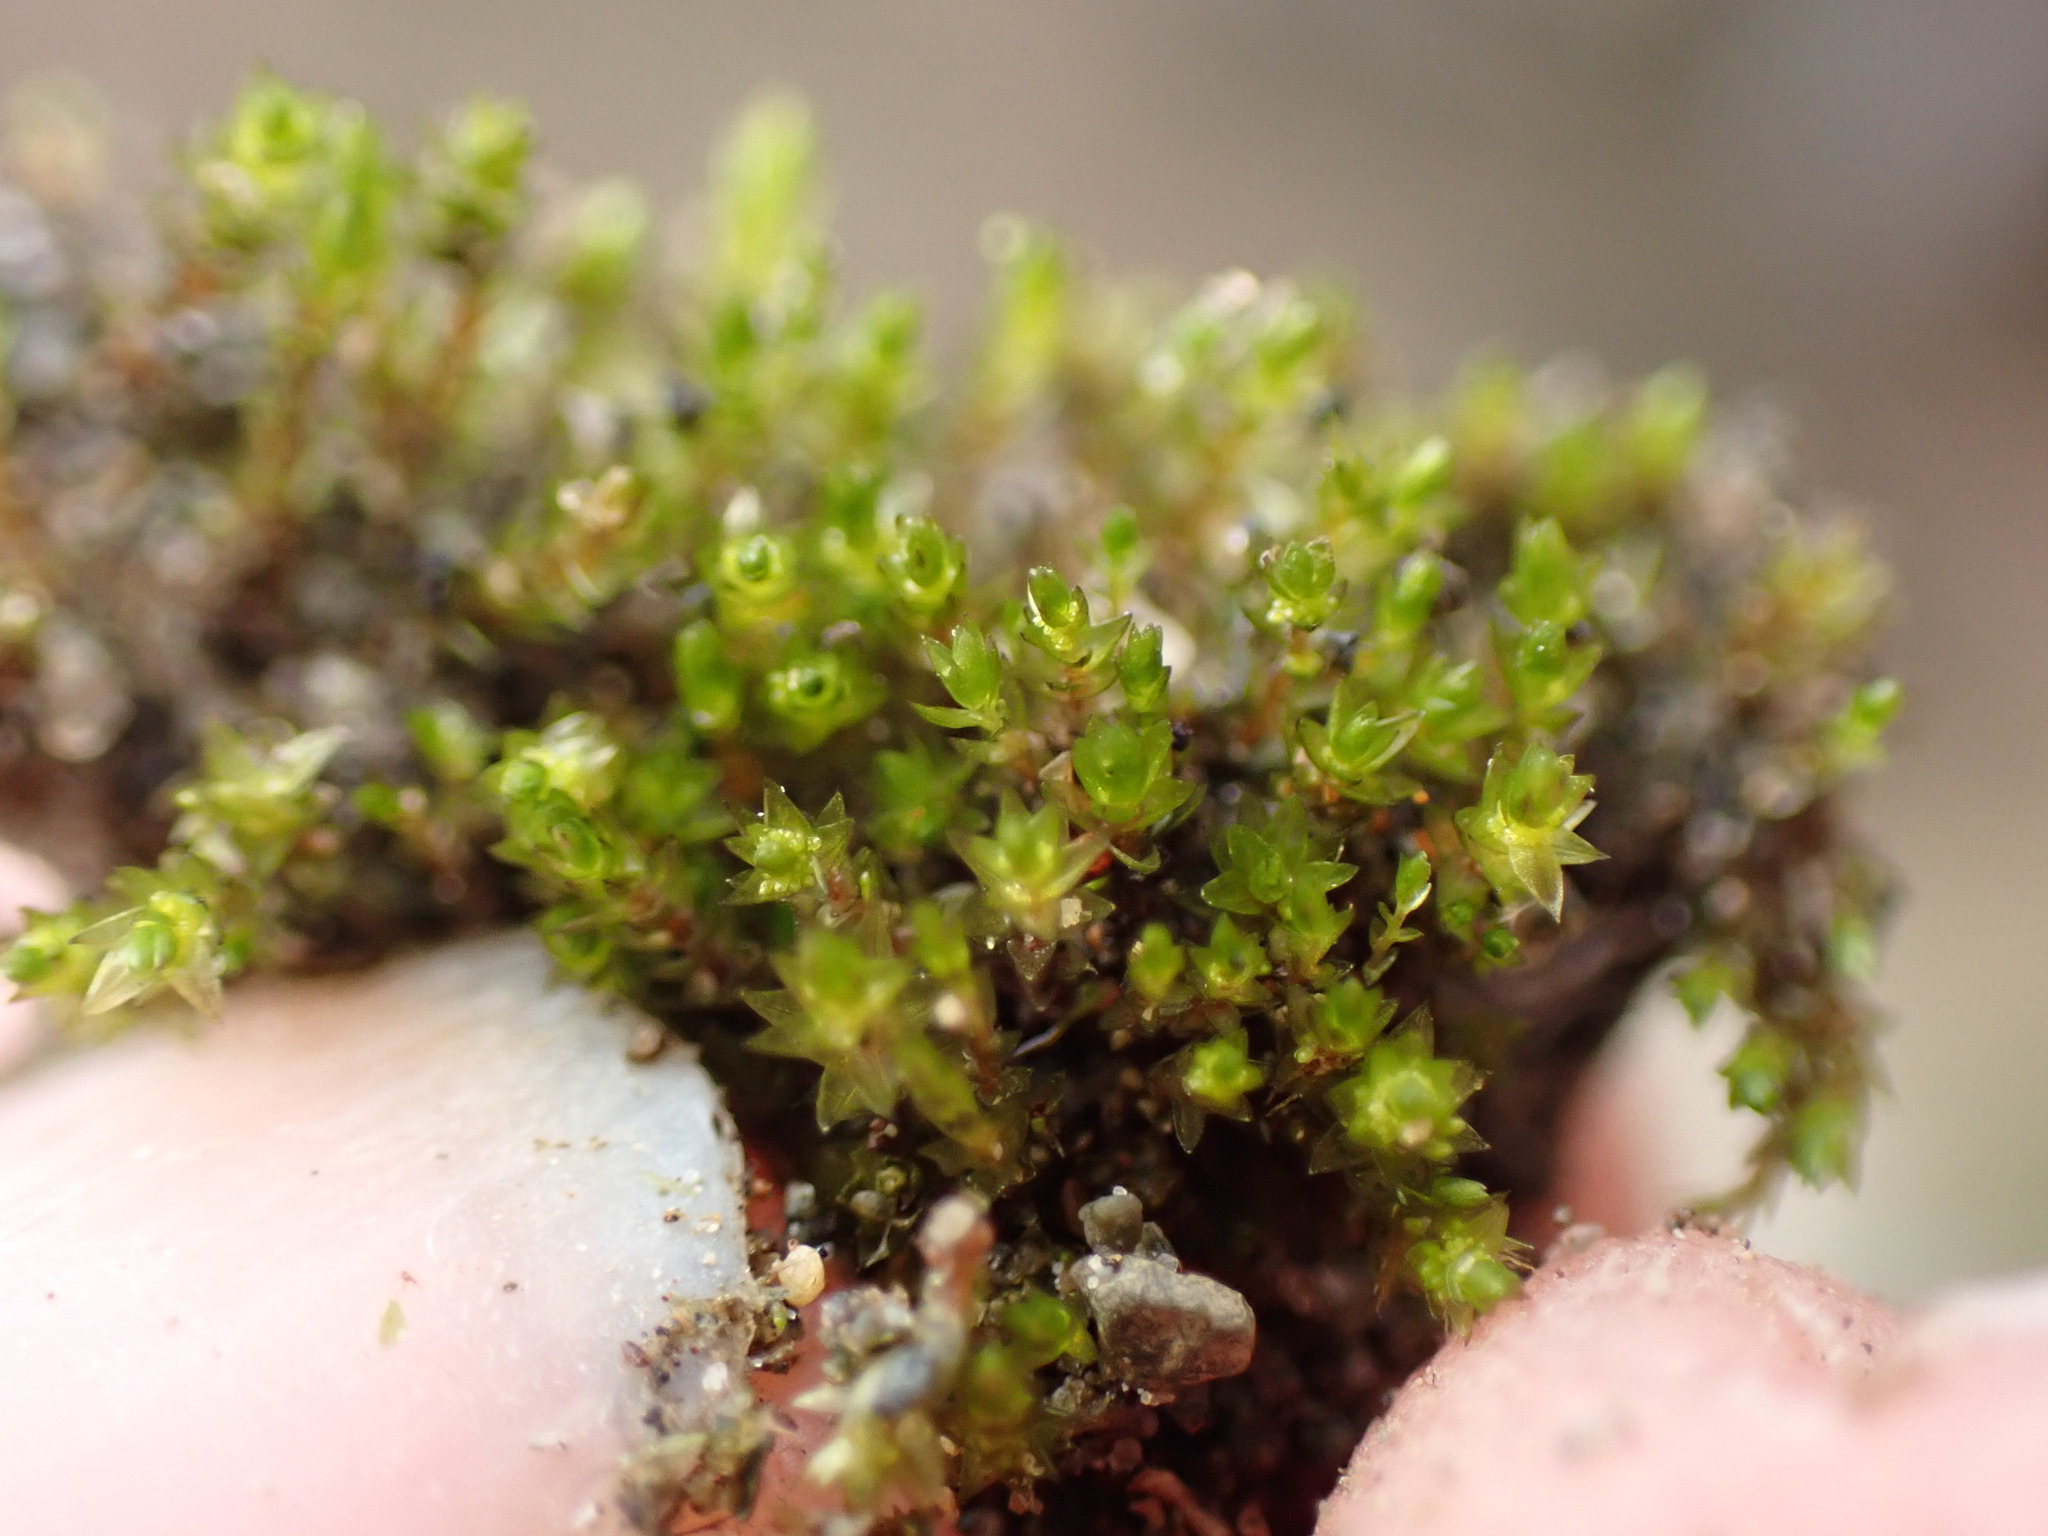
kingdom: Plantae
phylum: Bryophyta
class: Bryopsida
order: Bryales
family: Bryaceae
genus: Gemmabryum
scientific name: Gemmabryum
